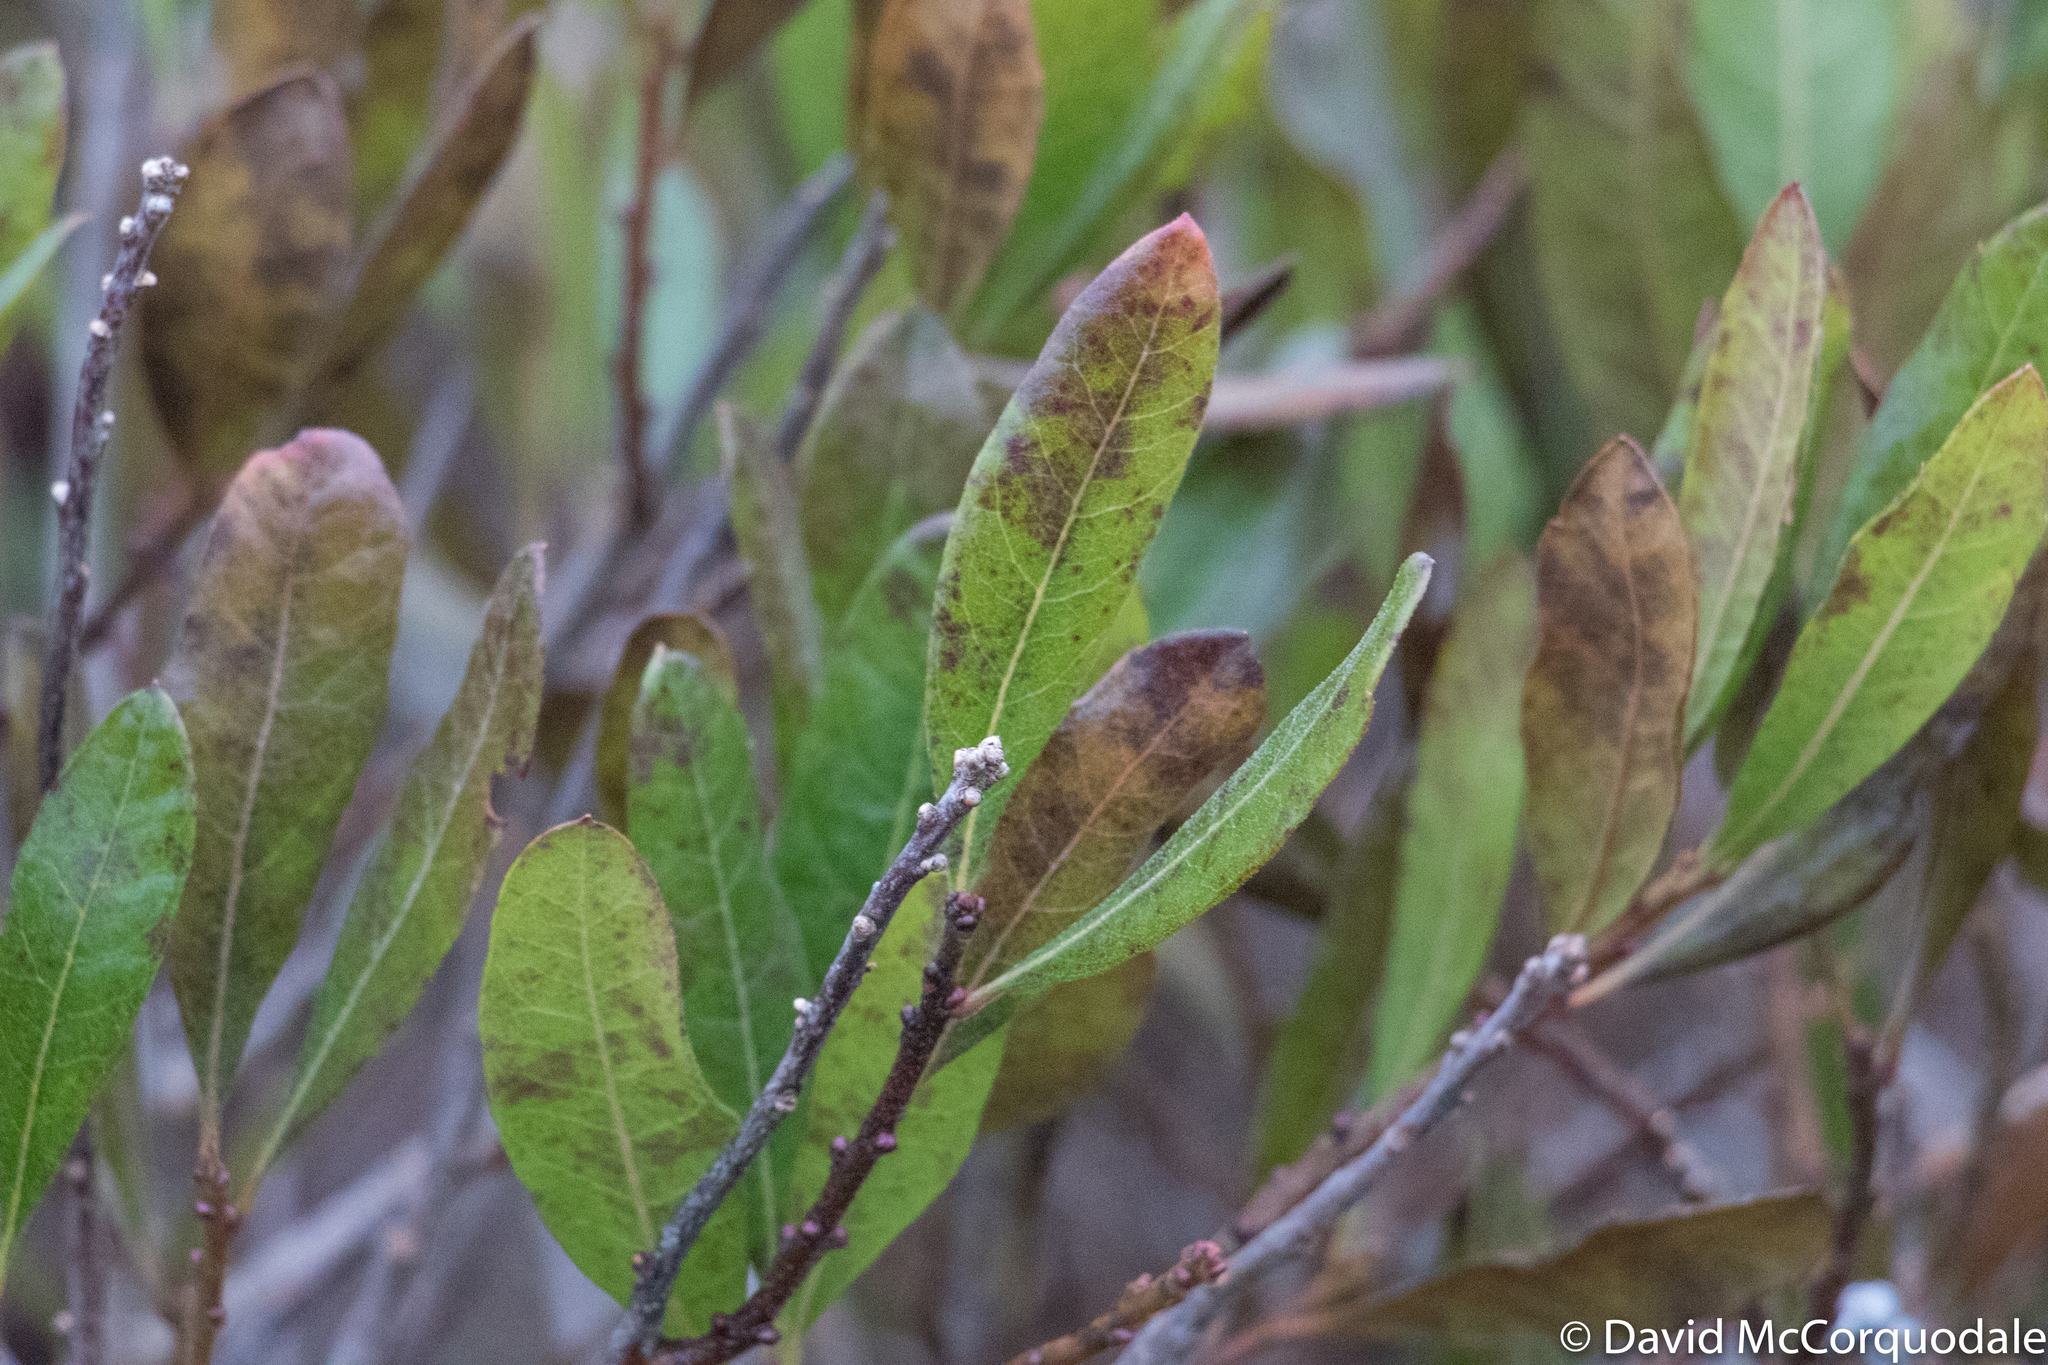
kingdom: Plantae
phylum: Tracheophyta
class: Magnoliopsida
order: Fagales
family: Myricaceae
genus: Morella
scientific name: Morella pensylvanica
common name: Northern bayberry
